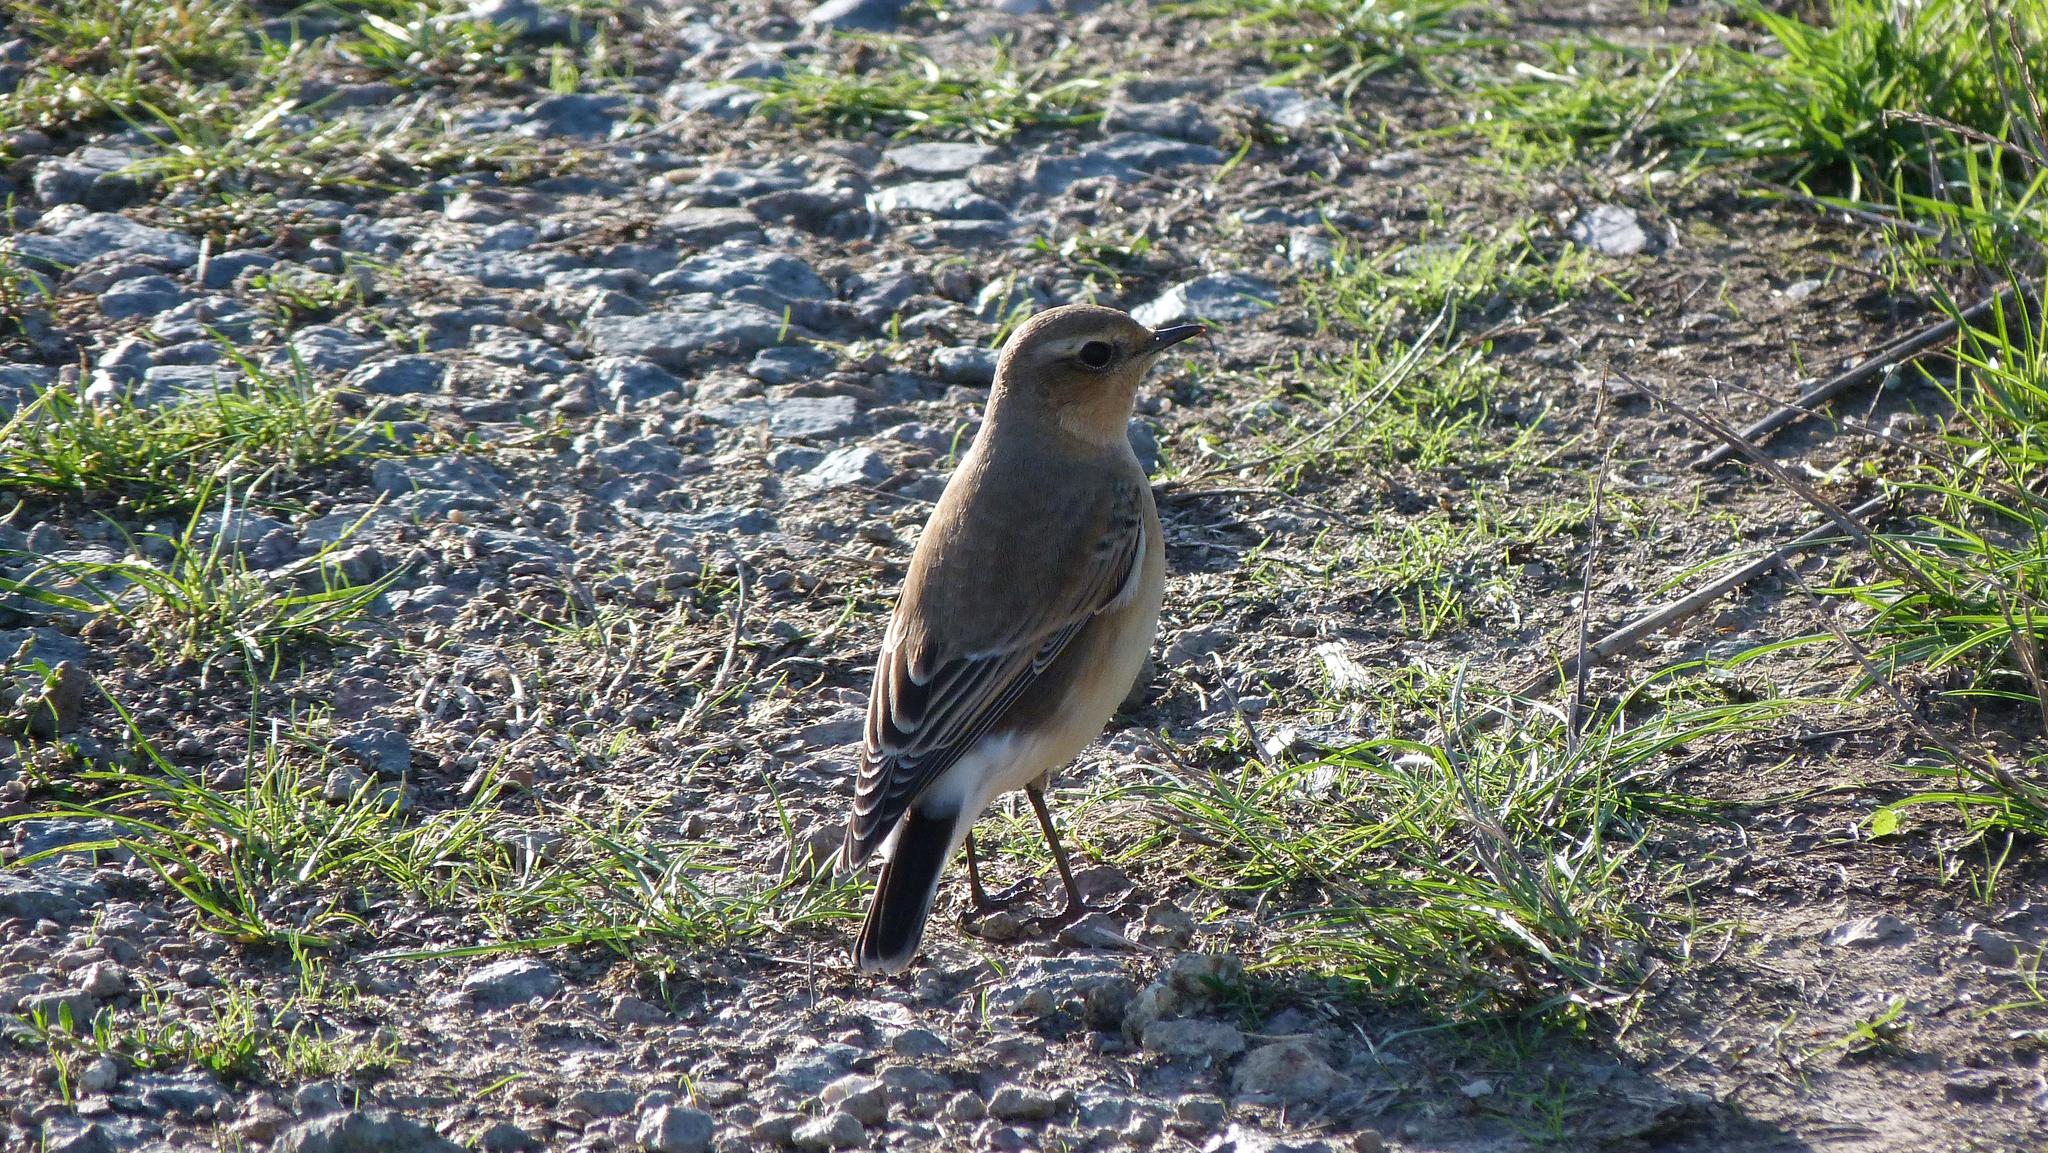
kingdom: Animalia
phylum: Chordata
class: Aves
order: Passeriformes
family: Muscicapidae
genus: Oenanthe
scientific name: Oenanthe oenanthe
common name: Northern wheatear
